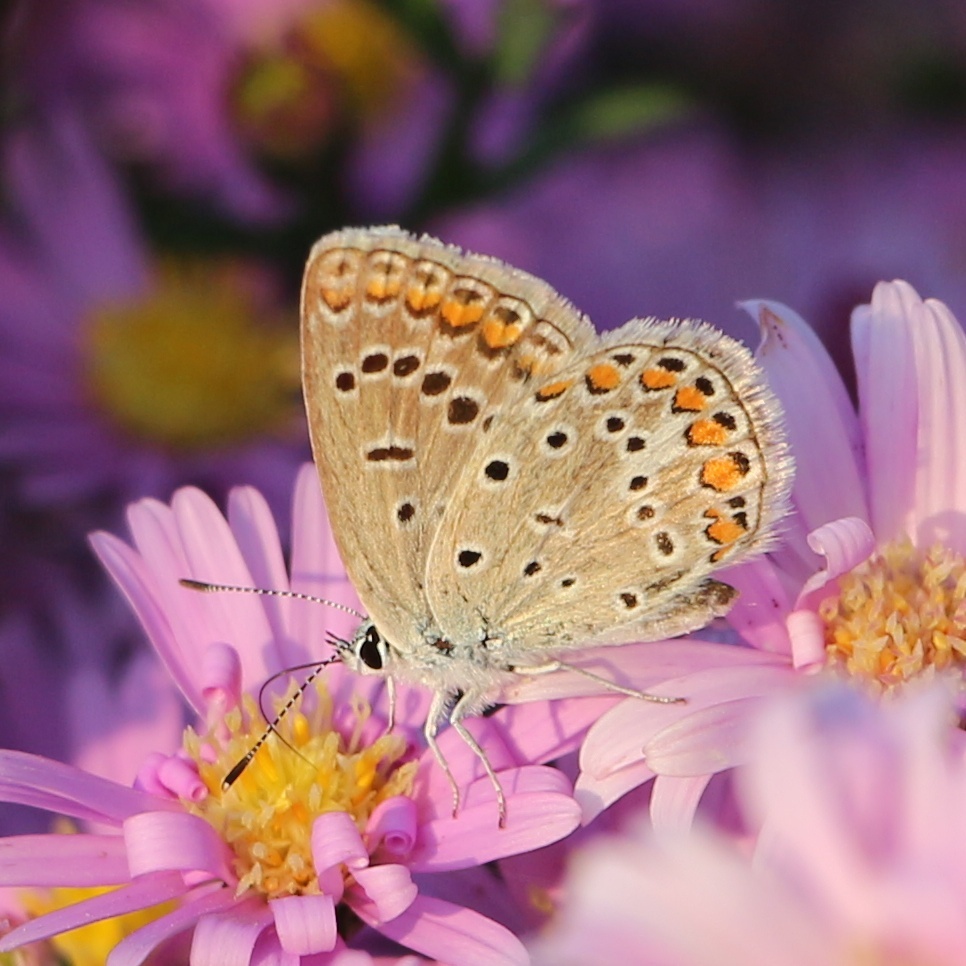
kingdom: Animalia
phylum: Arthropoda
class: Insecta
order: Lepidoptera
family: Lycaenidae
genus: Polyommatus
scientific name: Polyommatus icarus
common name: Common blue
